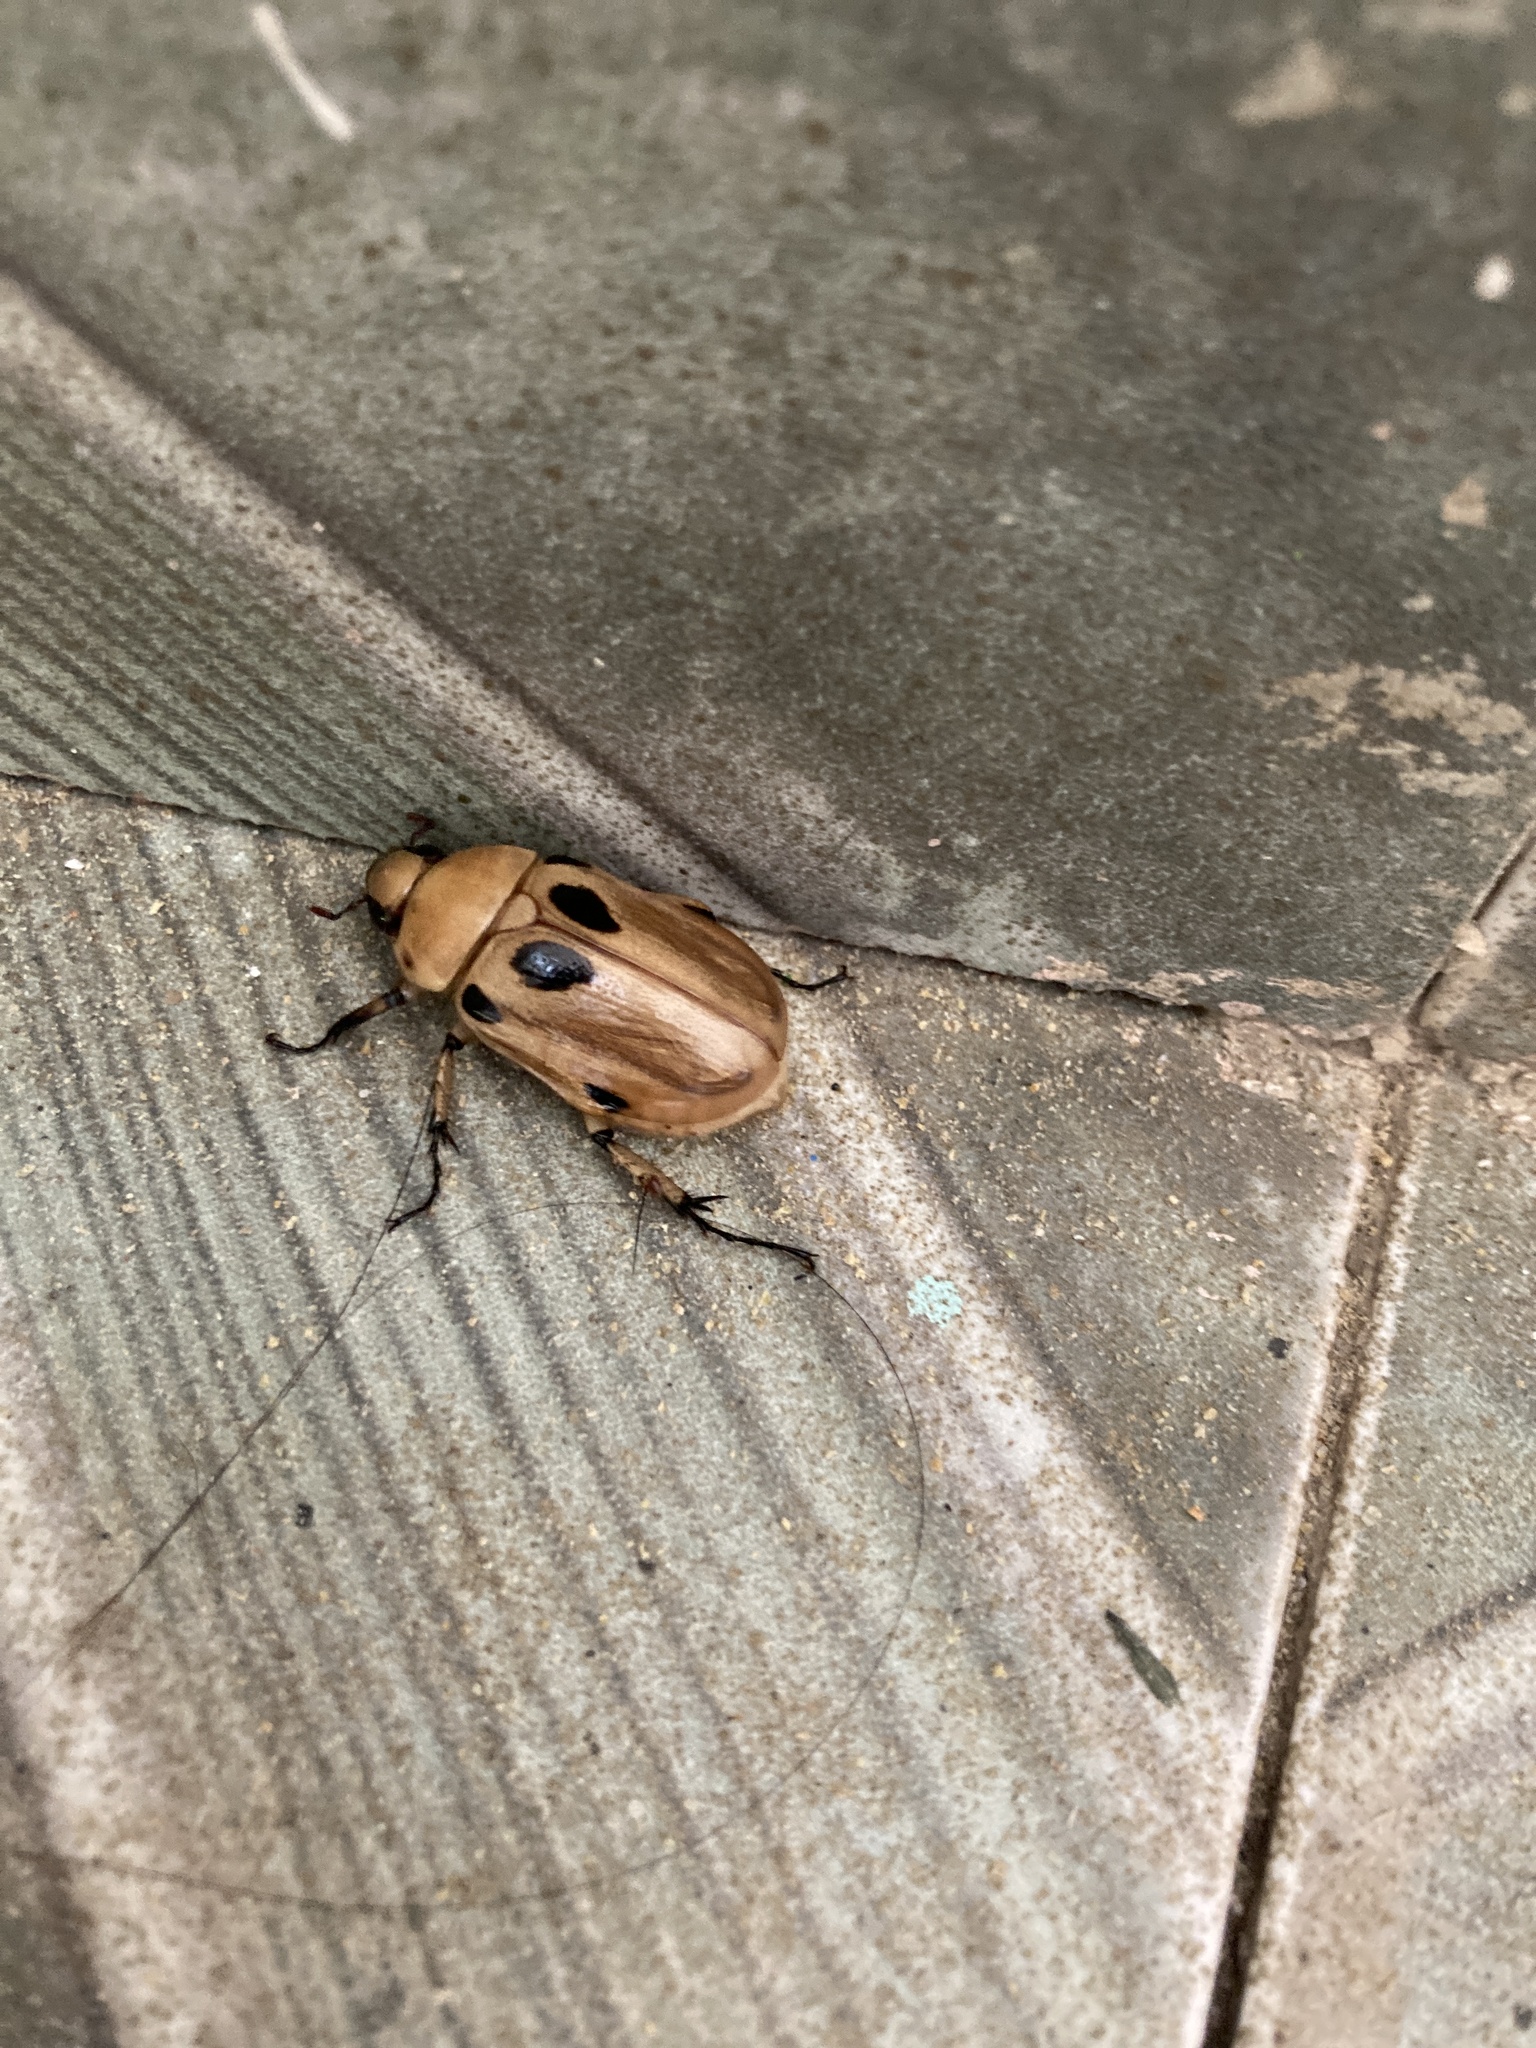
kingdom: Animalia
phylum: Arthropoda
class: Insecta
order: Coleoptera
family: Scarabaeidae
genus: Ancognatha
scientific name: Ancognatha vulgaris
